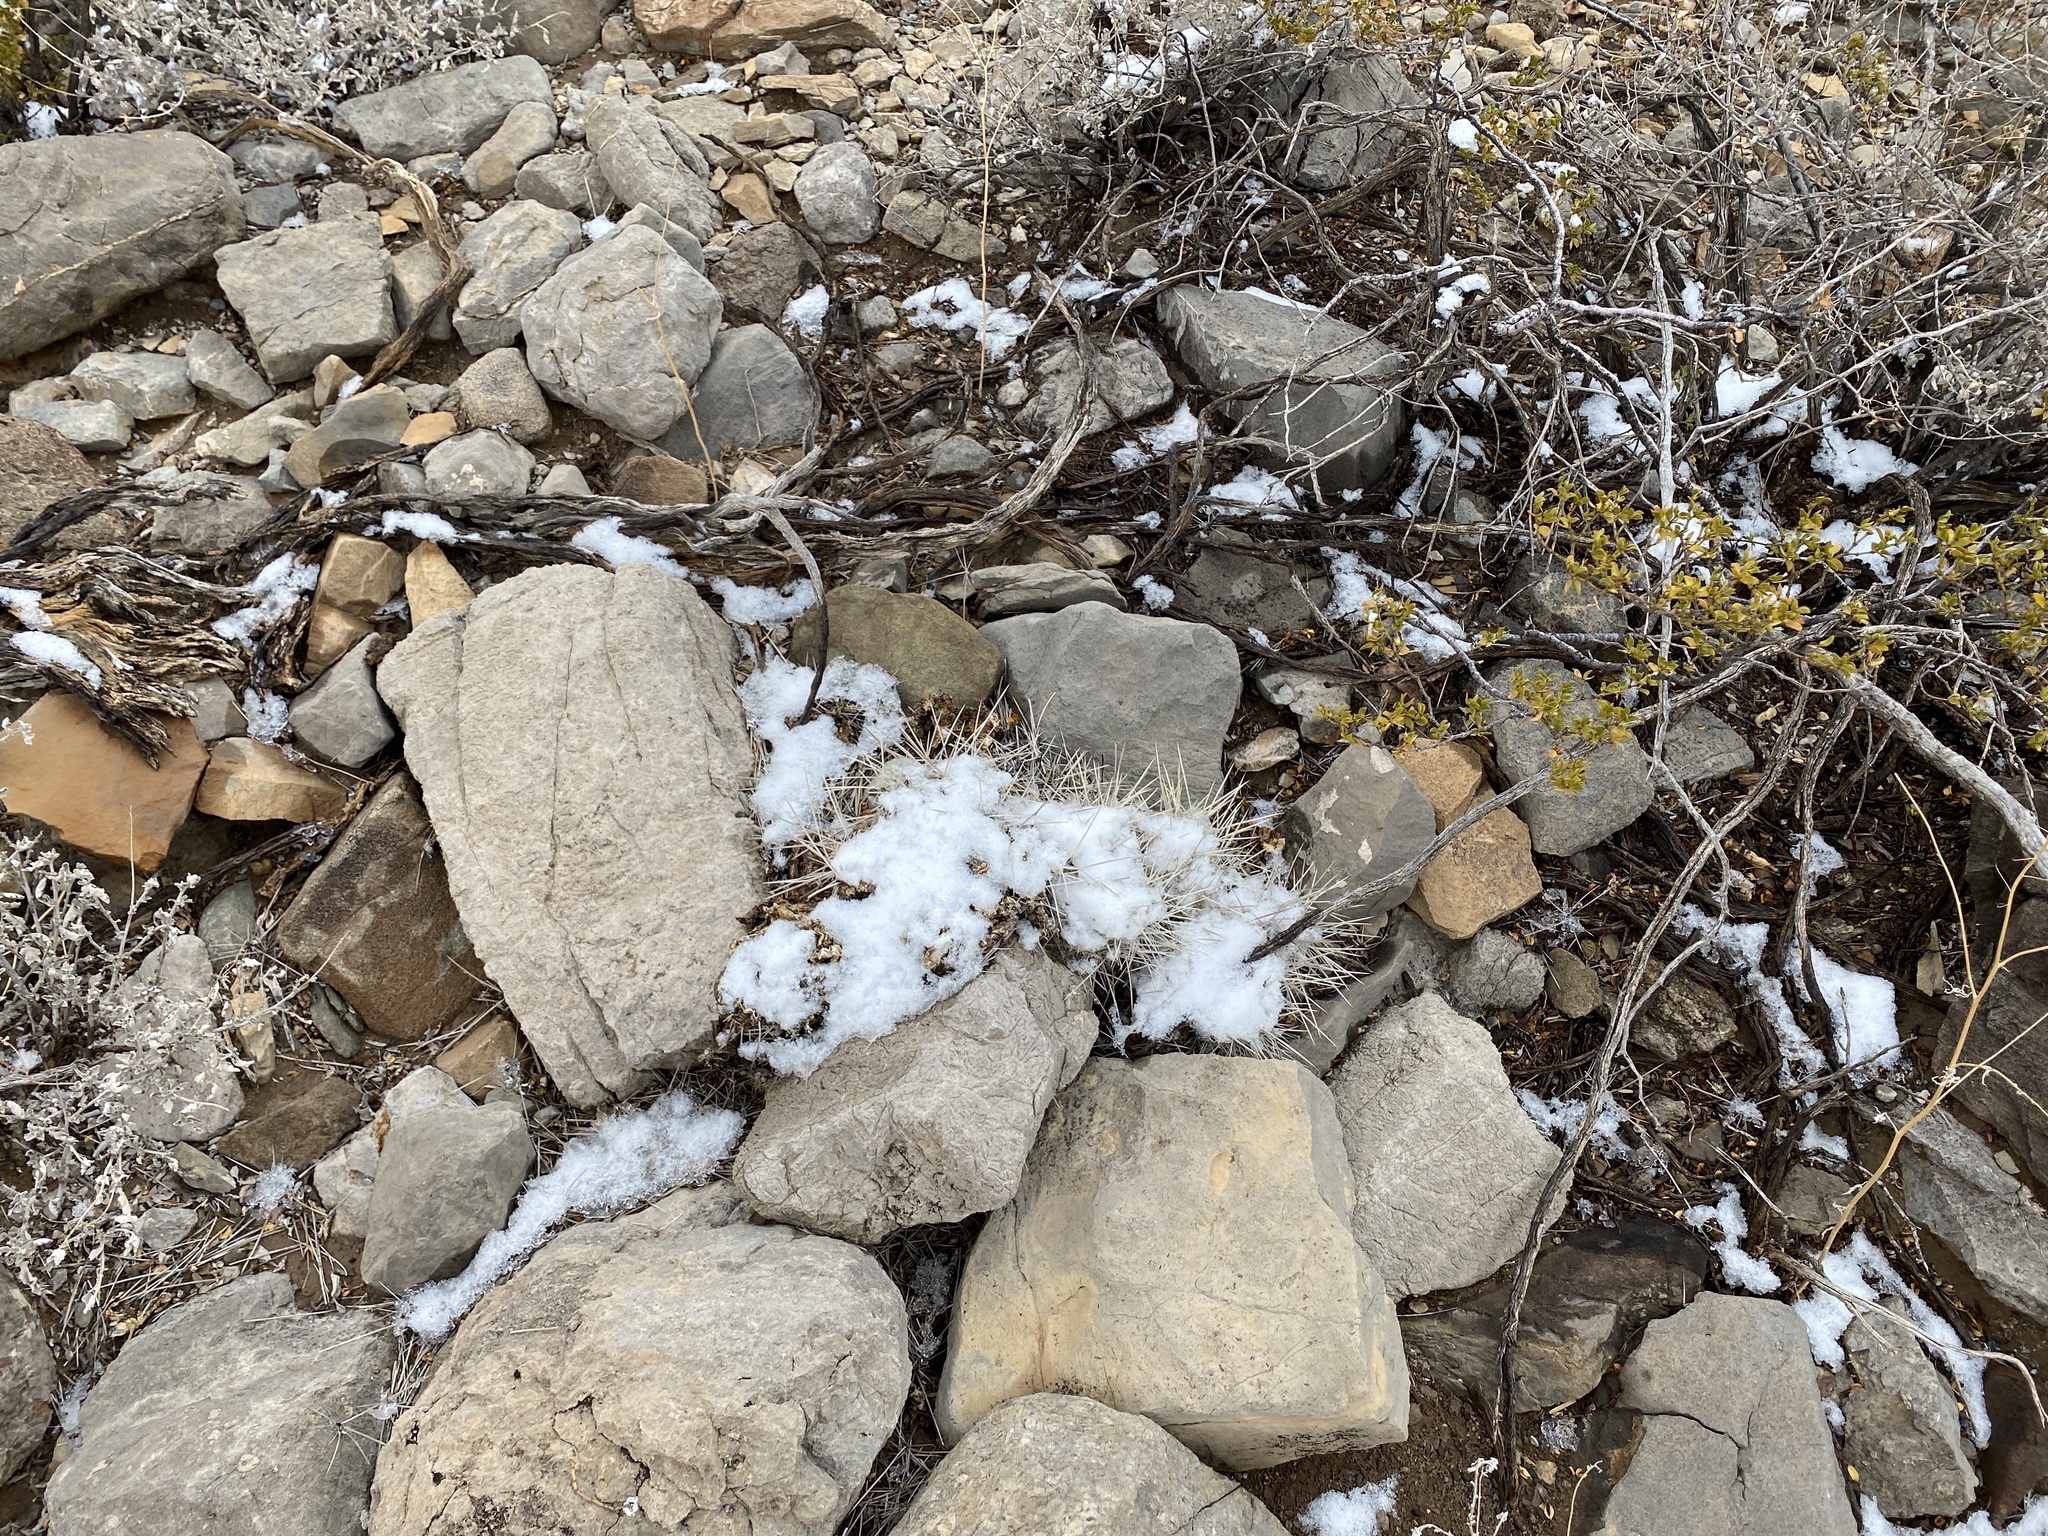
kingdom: Plantae
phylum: Tracheophyta
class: Magnoliopsida
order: Caryophyllales
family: Cactaceae
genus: Echinocereus
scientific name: Echinocereus coccineus
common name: Scarlet hedgehog cactus
